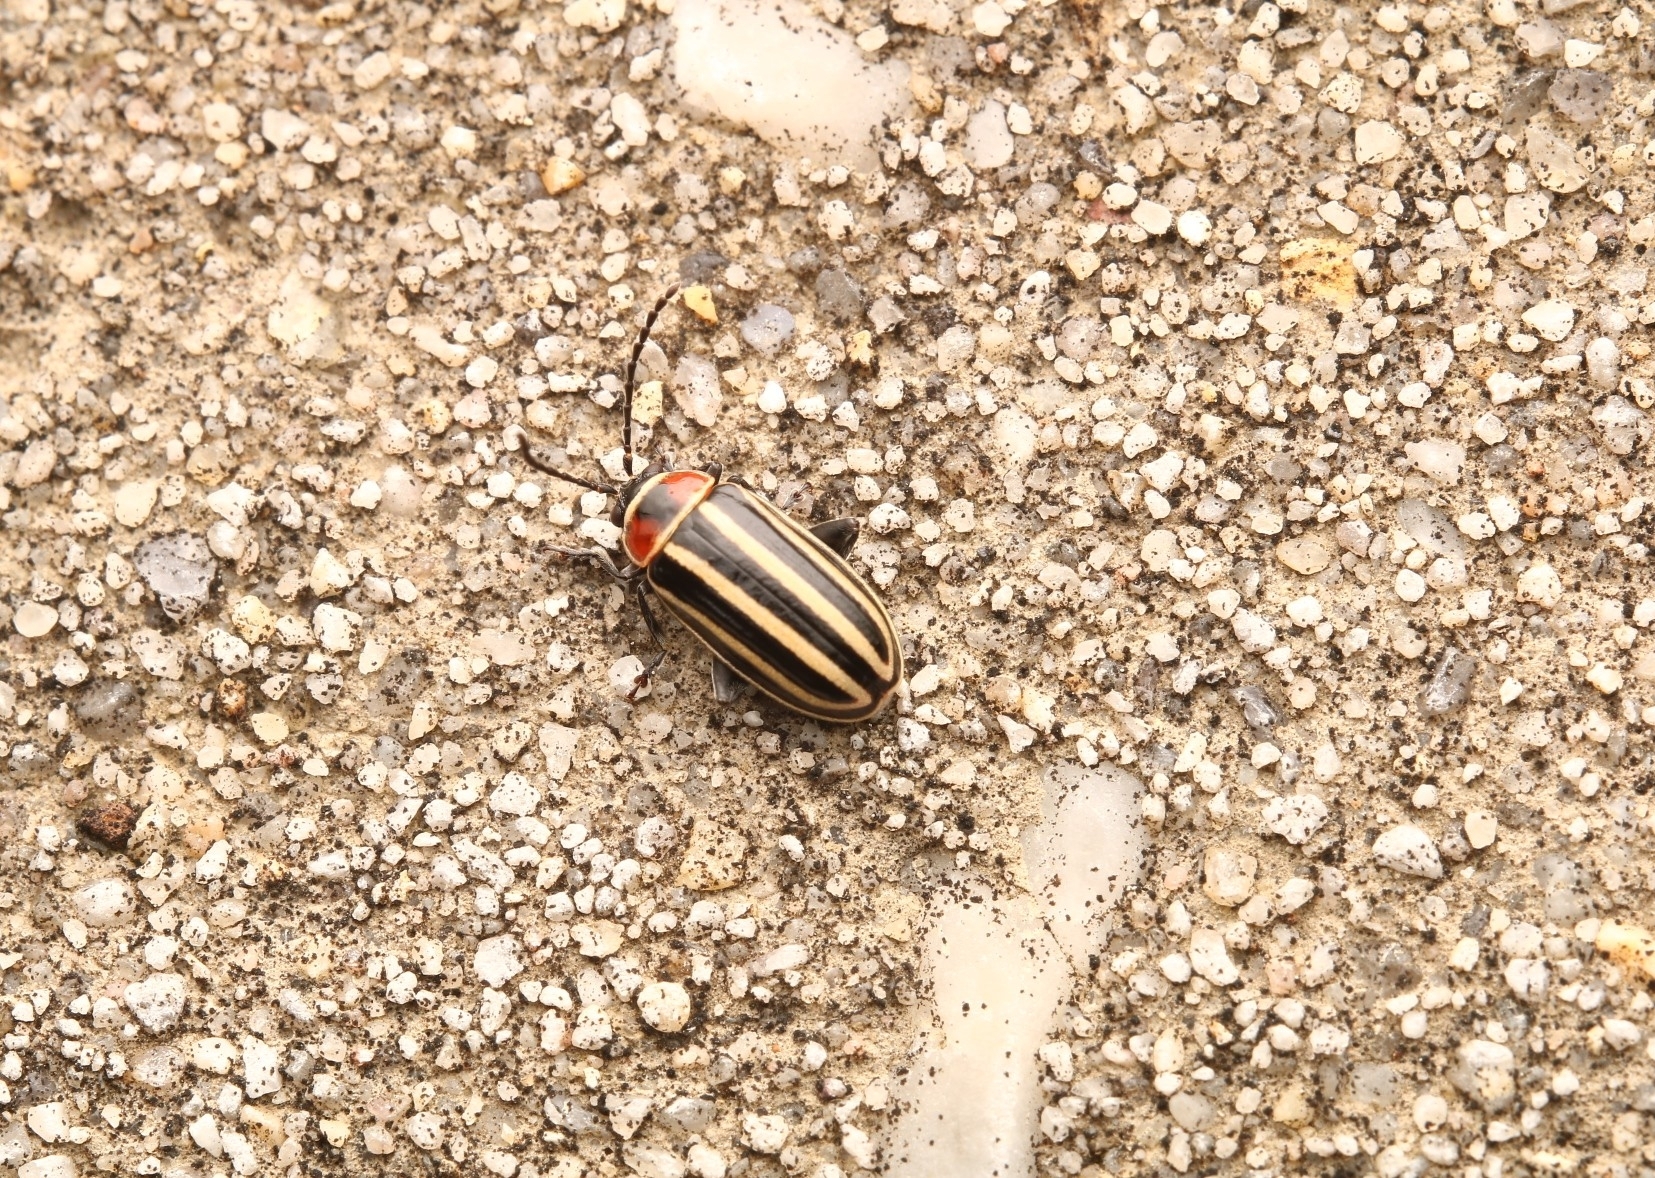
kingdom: Animalia
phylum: Arthropoda
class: Insecta
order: Coleoptera
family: Chrysomelidae
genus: Disonycha
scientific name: Disonycha pensylvanica
